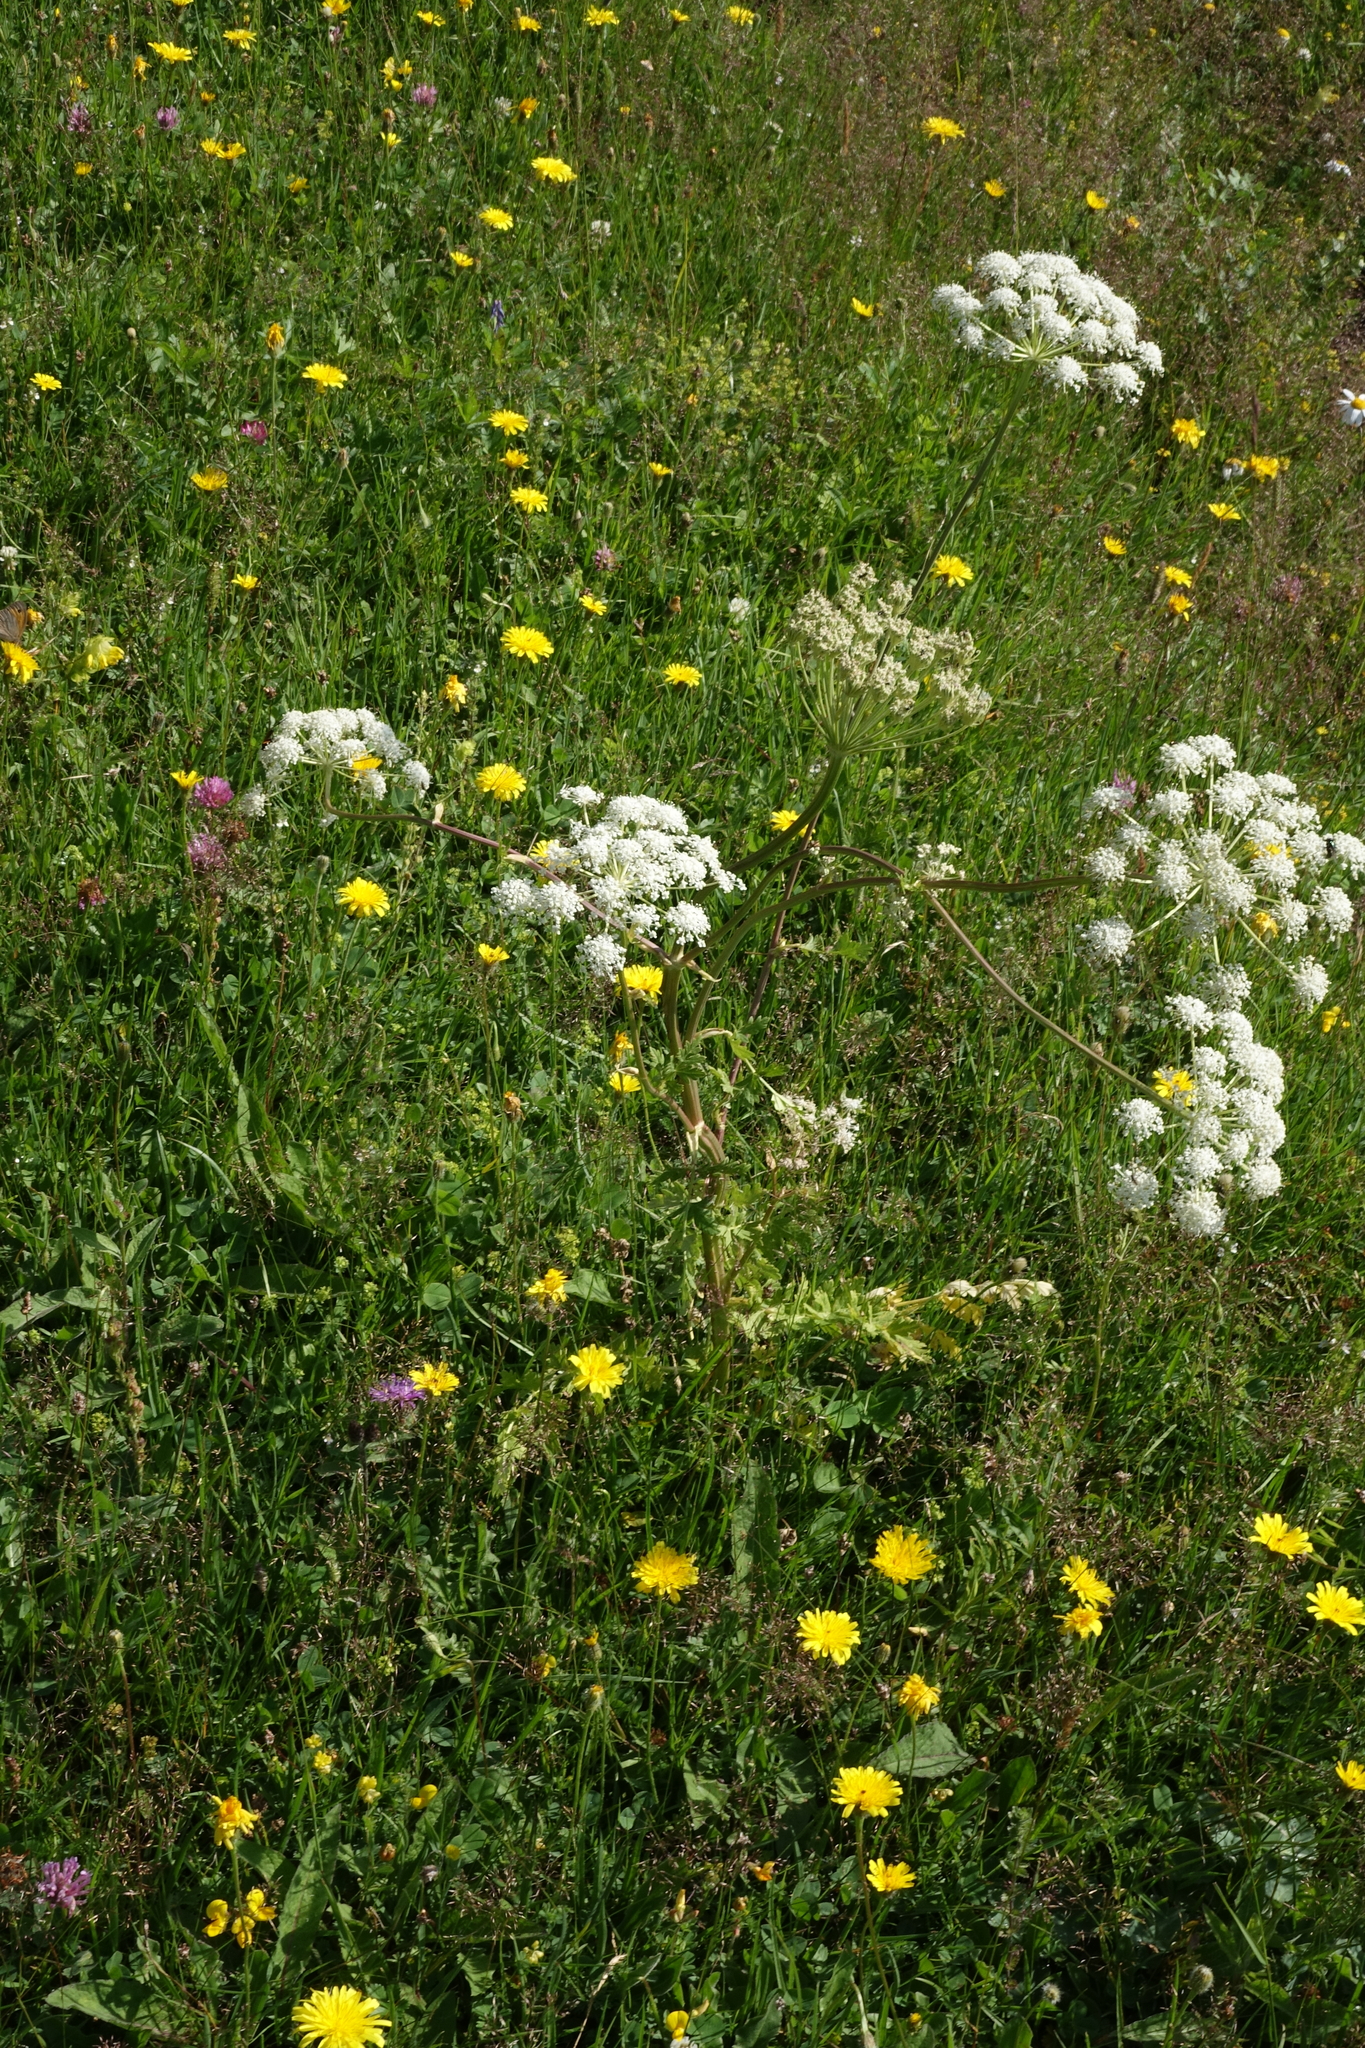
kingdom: Plantae
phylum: Tracheophyta
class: Magnoliopsida
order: Apiales
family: Apiaceae
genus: Seseli
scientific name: Seseli libanotis
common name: Mooncarrot
